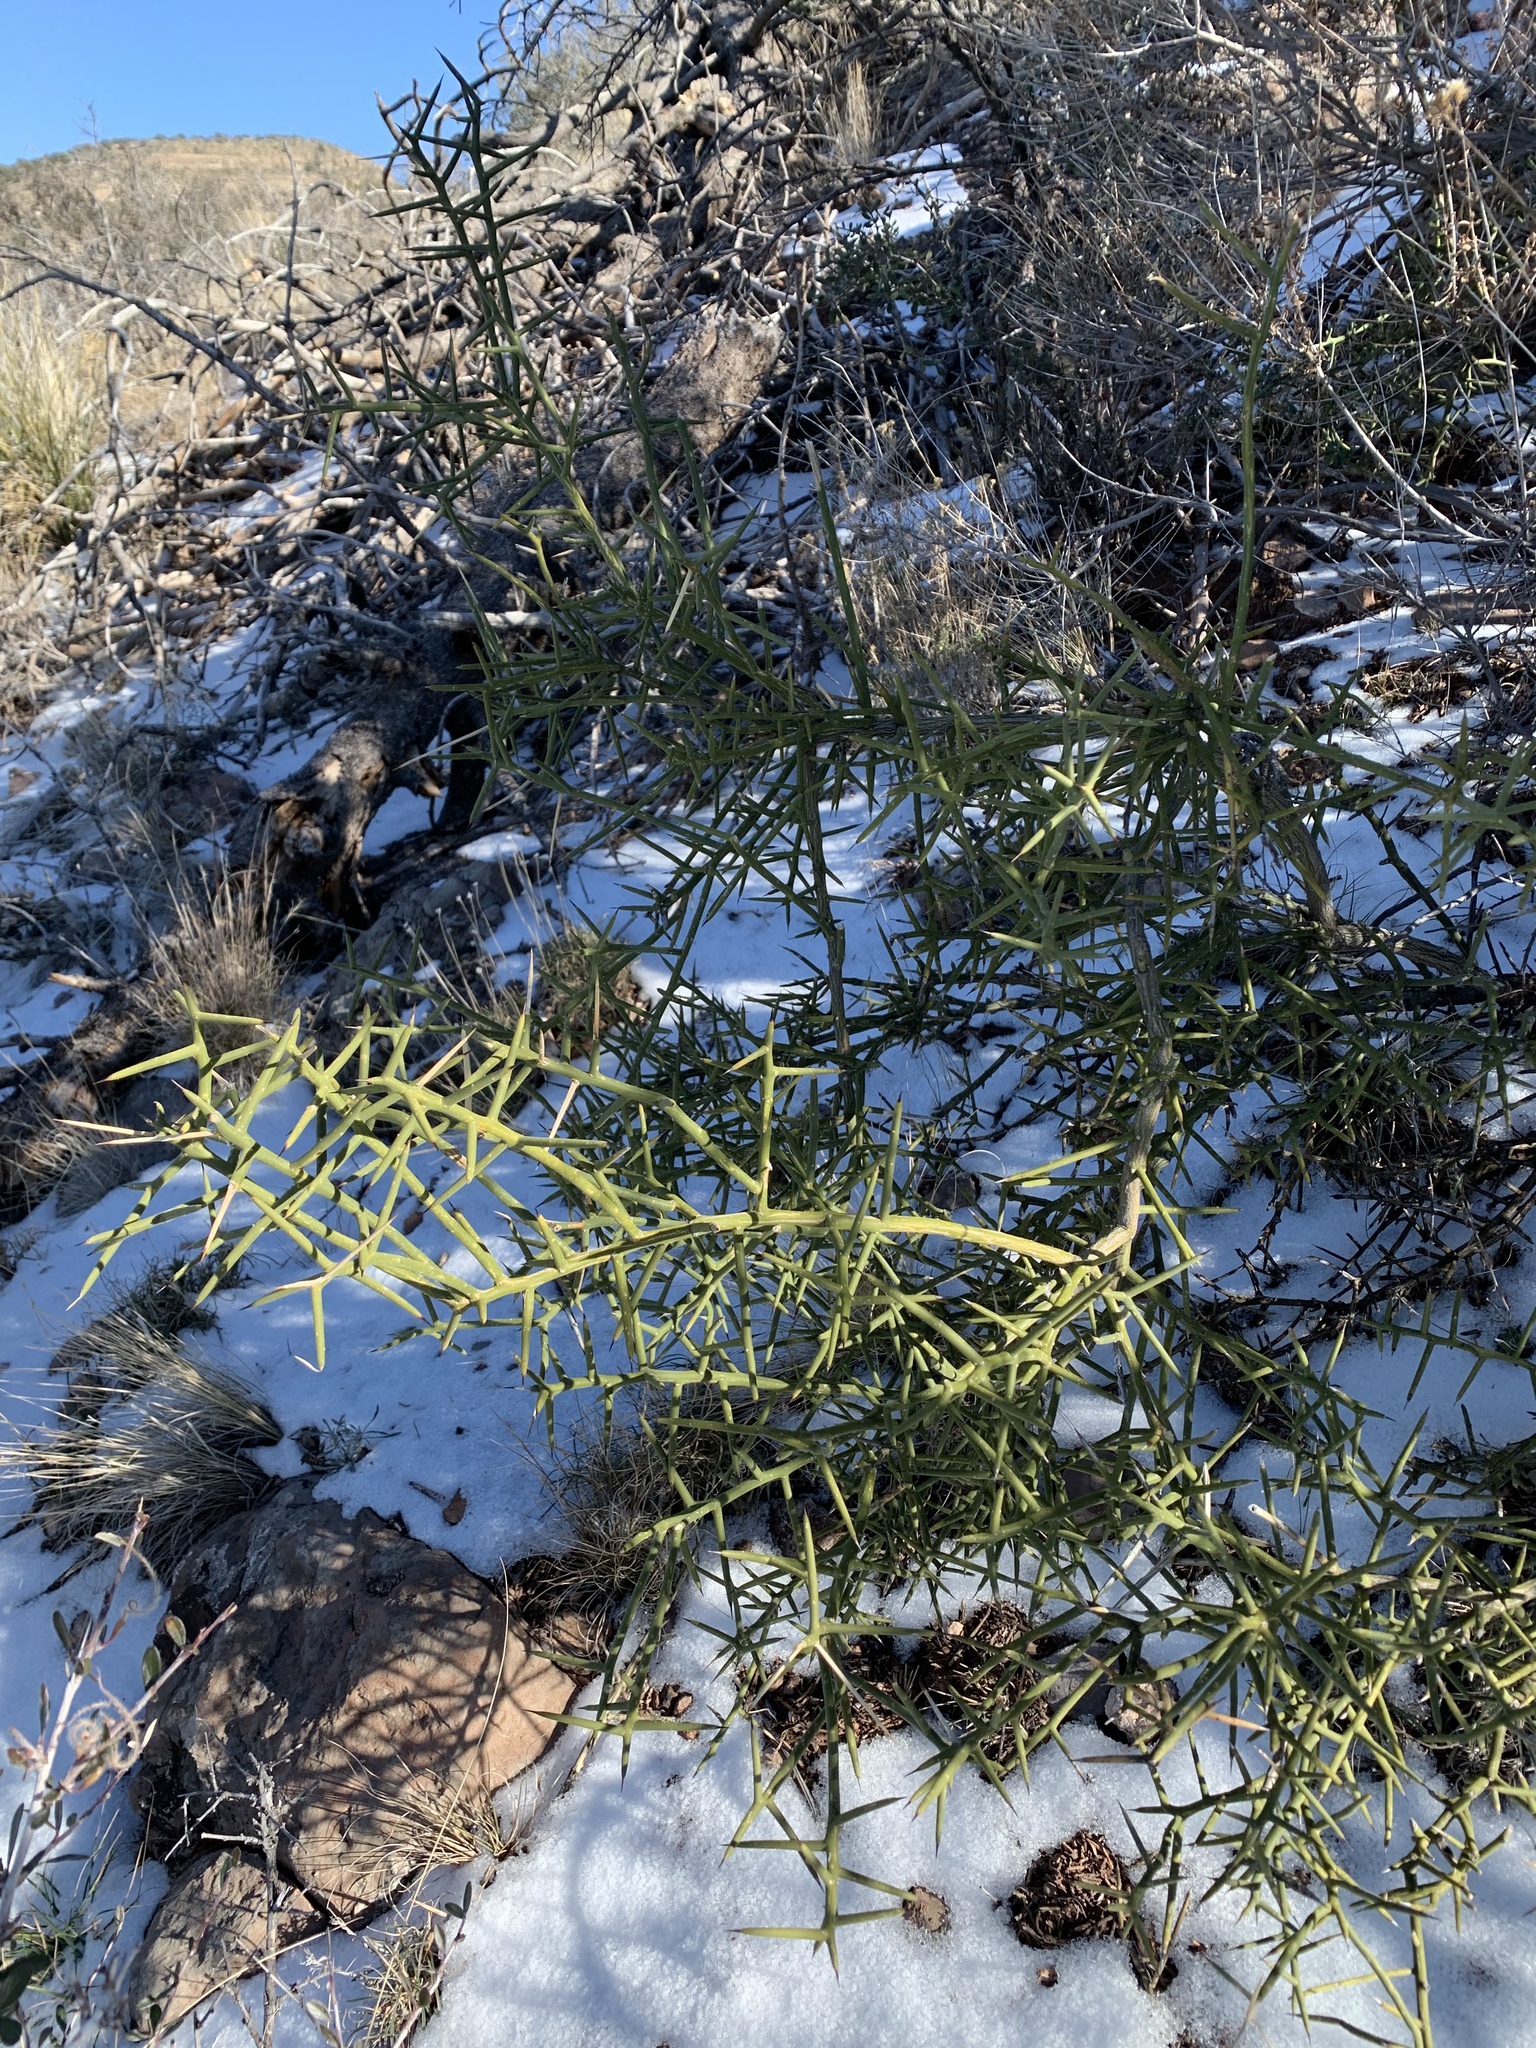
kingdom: Plantae
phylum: Tracheophyta
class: Magnoliopsida
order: Brassicales
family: Koeberliniaceae
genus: Koeberlinia
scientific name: Koeberlinia spinosa
